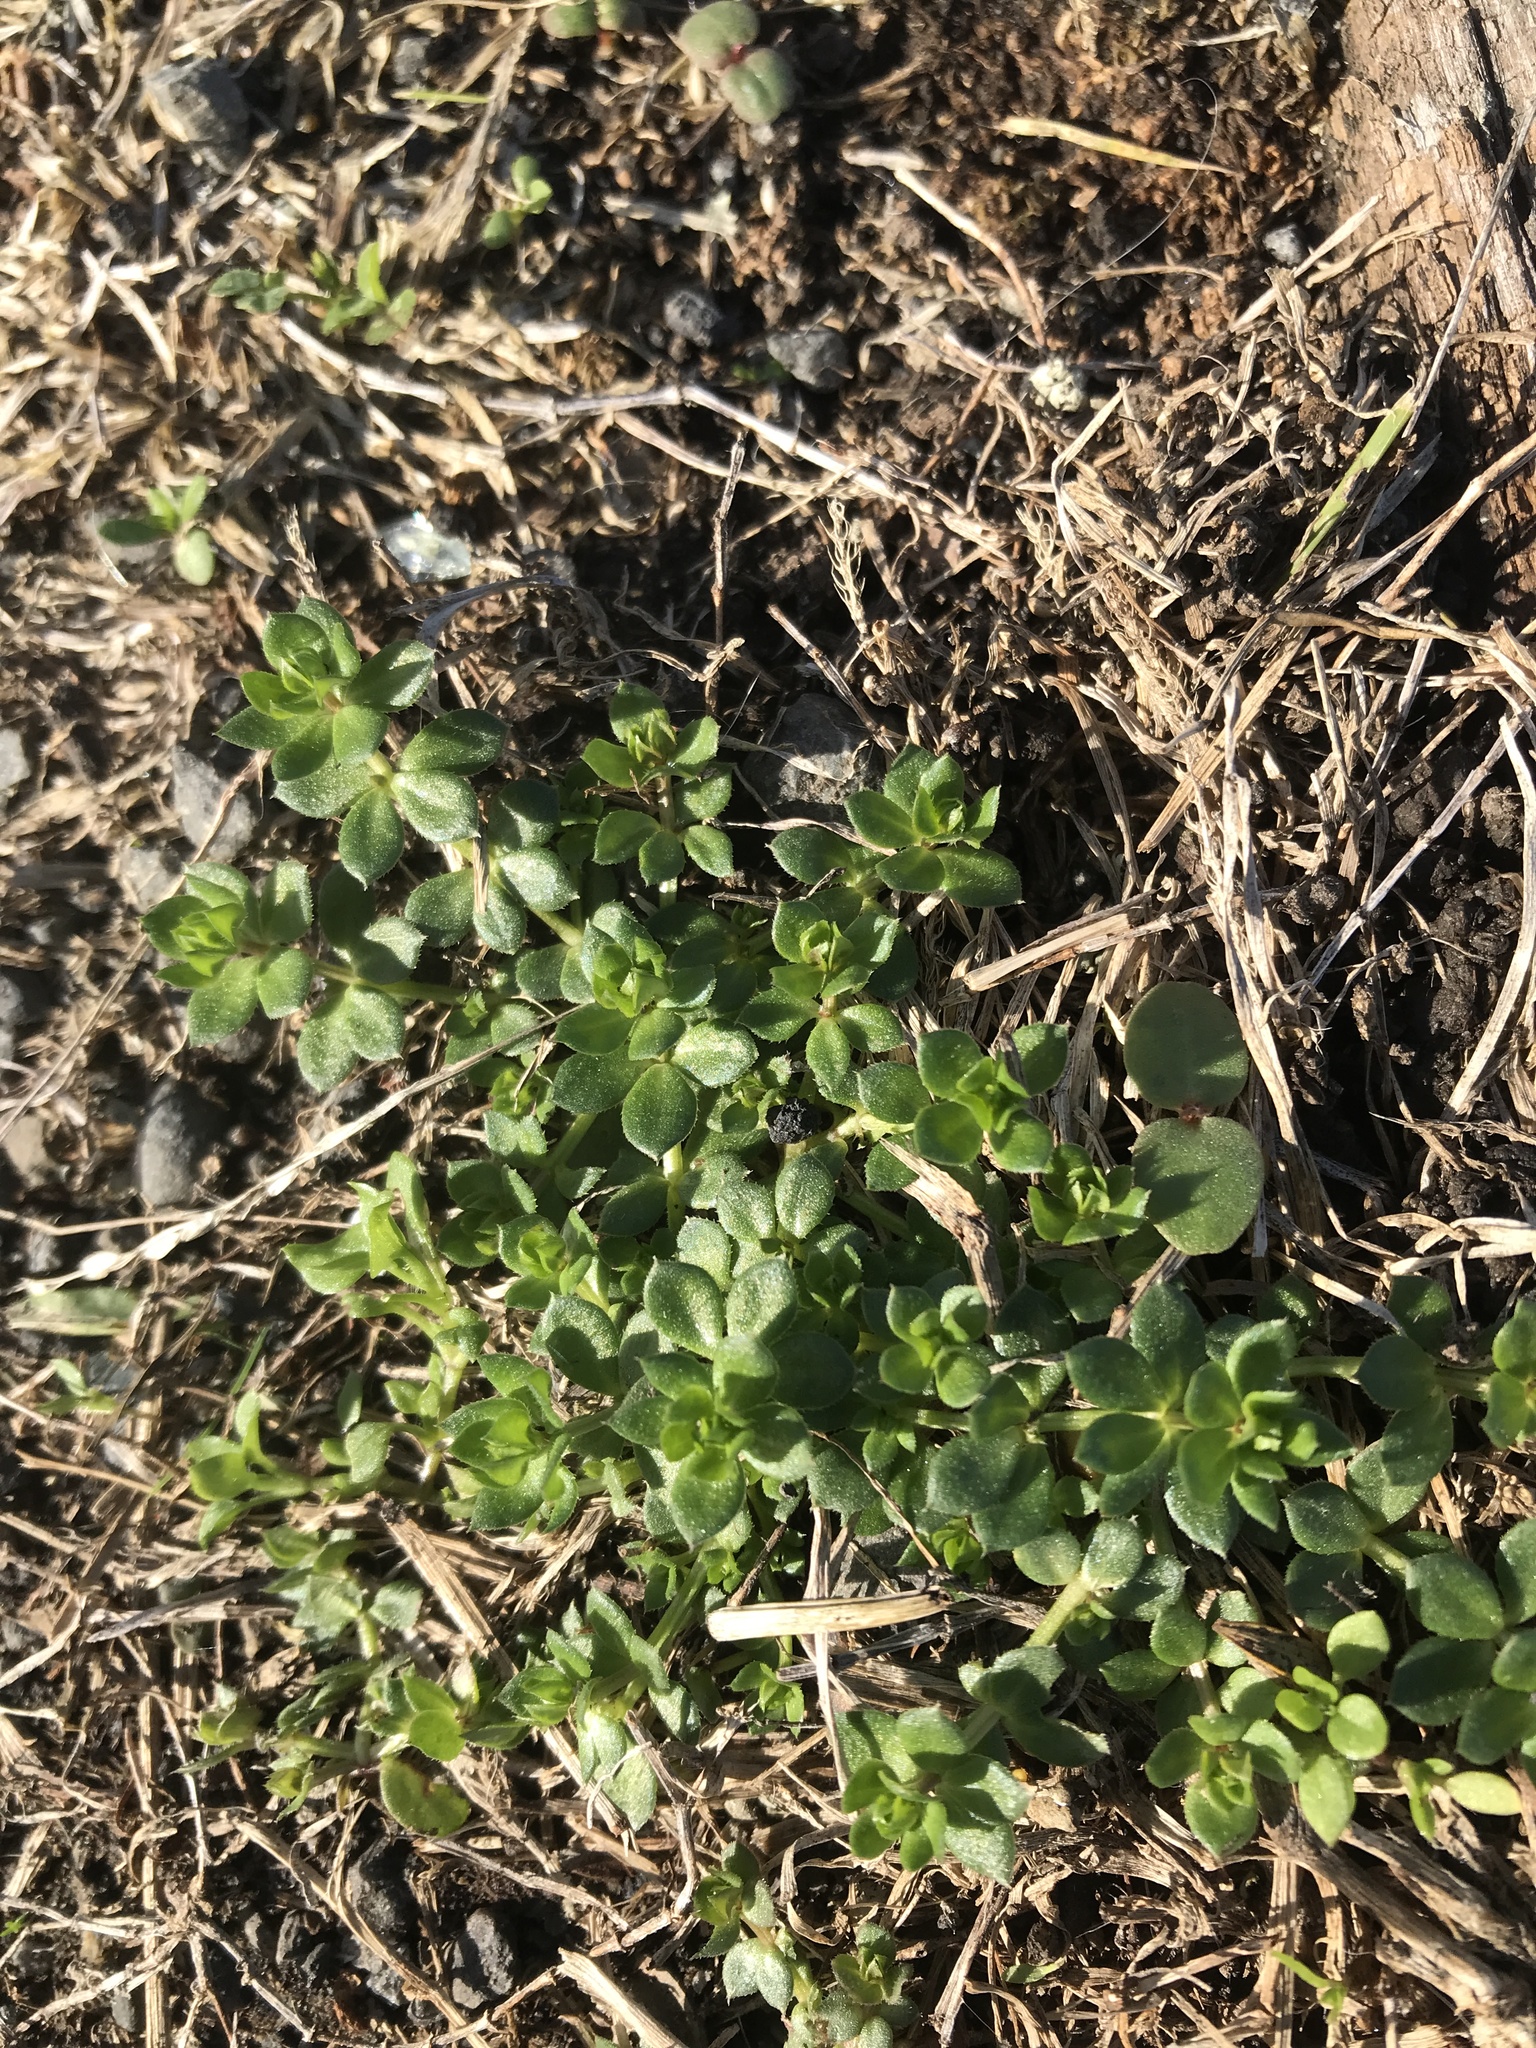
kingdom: Plantae
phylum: Tracheophyta
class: Magnoliopsida
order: Gentianales
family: Rubiaceae
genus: Galium
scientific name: Galium aparine
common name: Cleavers
